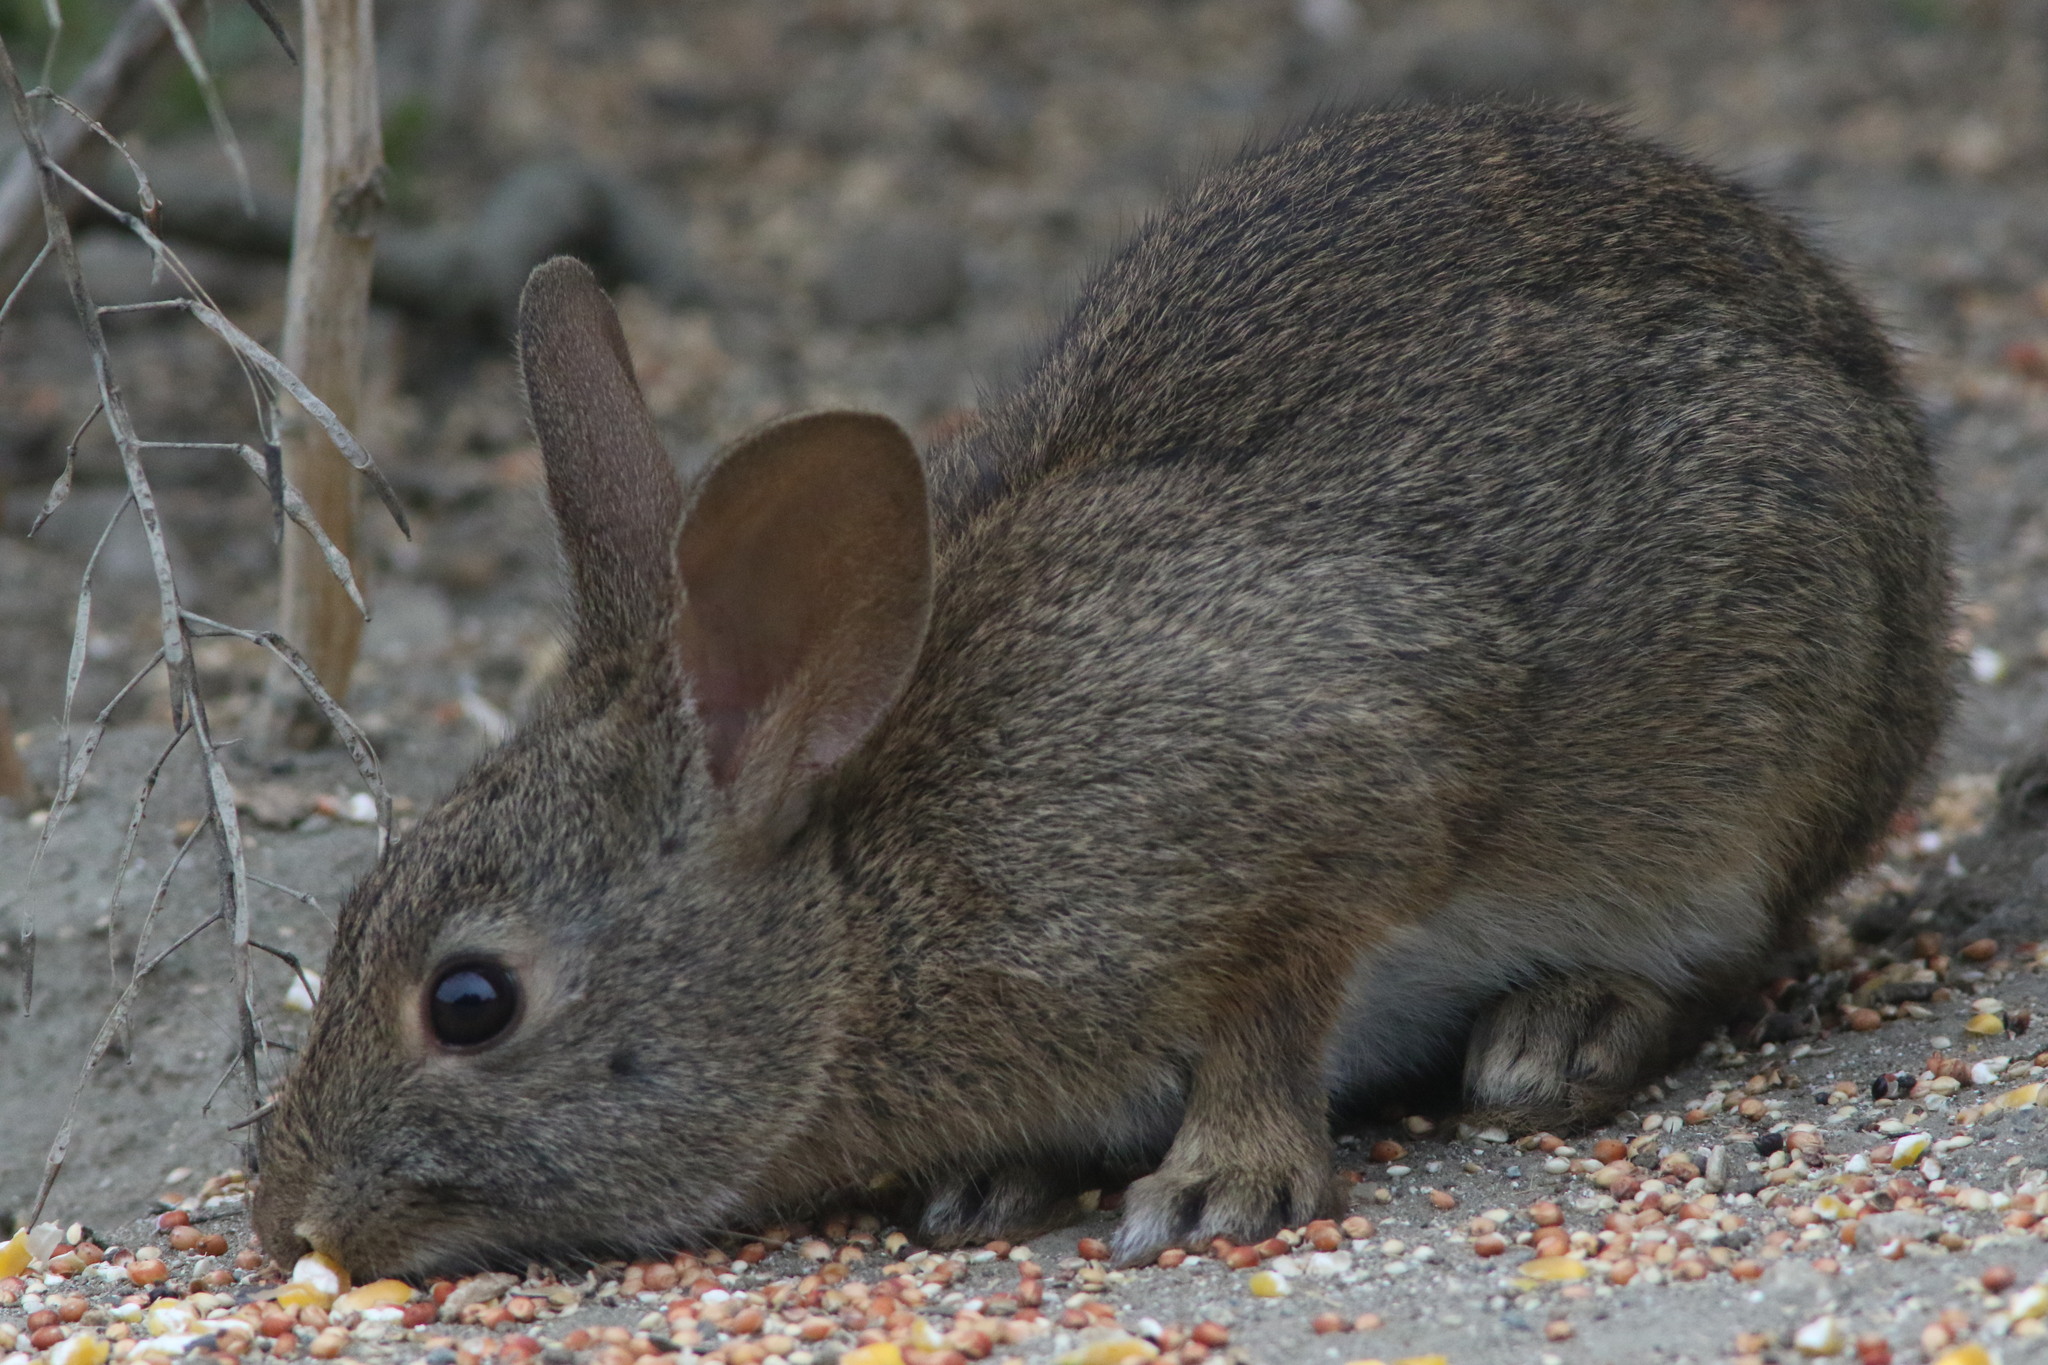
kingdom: Animalia
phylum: Chordata
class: Mammalia
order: Lagomorpha
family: Leporidae
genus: Sylvilagus
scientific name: Sylvilagus bachmani
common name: Brush rabbit
